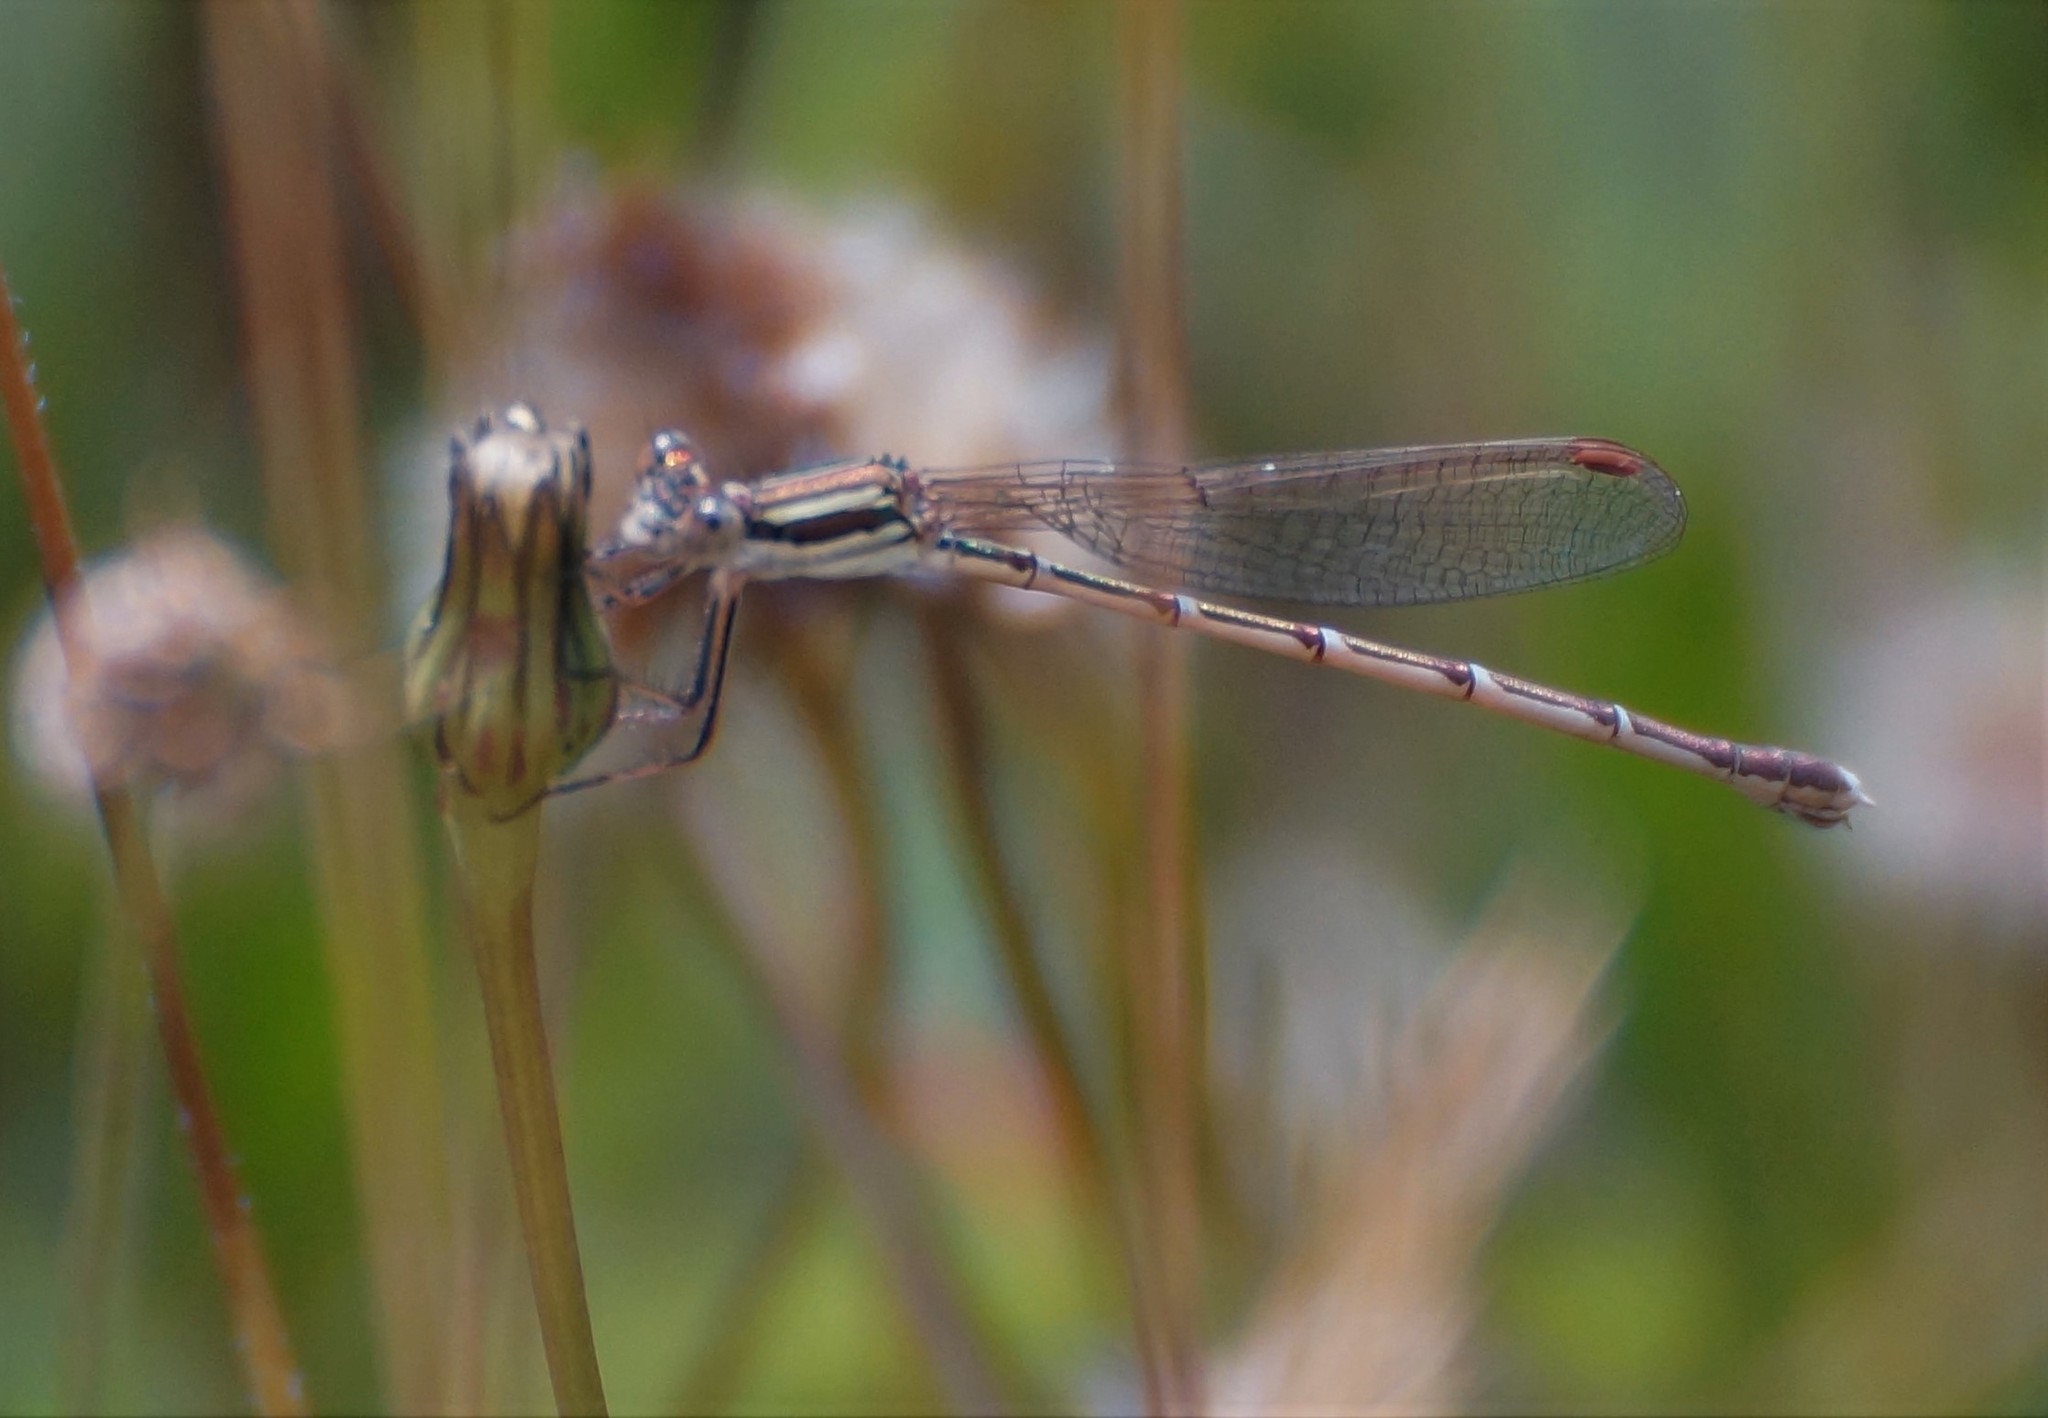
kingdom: Animalia
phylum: Arthropoda
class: Insecta
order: Odonata
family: Lestidae
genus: Austrolestes
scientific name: Austrolestes analis
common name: Slender ringtail
